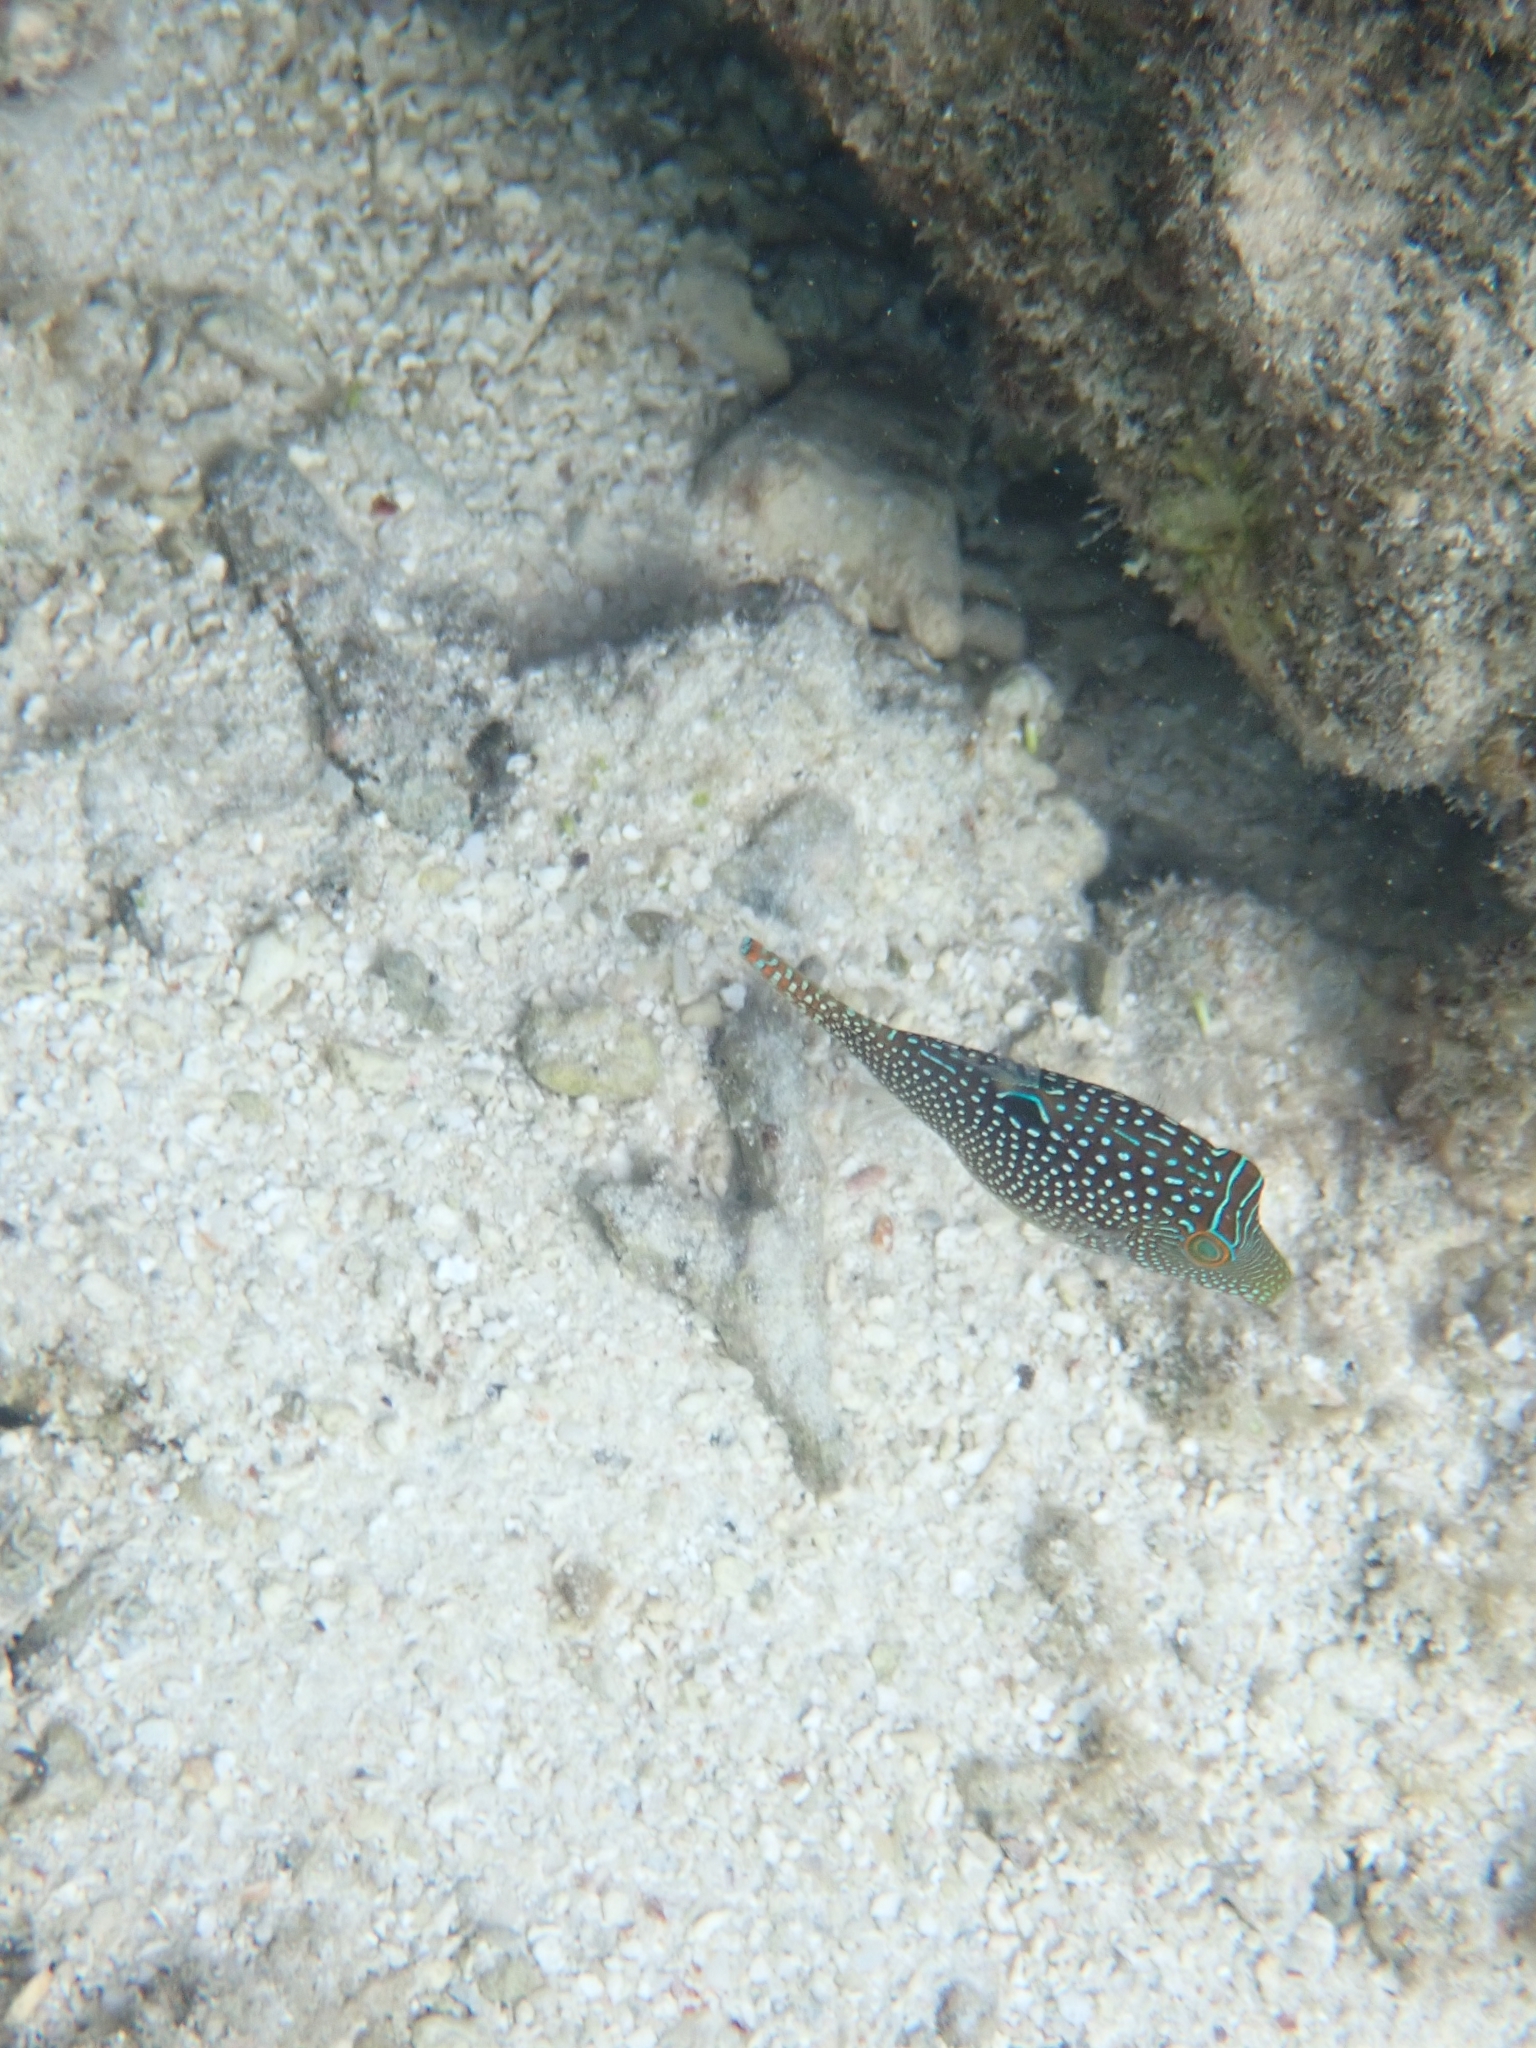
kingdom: Animalia
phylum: Chordata
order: Tetraodontiformes
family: Tetraodontidae
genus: Canthigaster
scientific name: Canthigaster solandri
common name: False-eye toby
